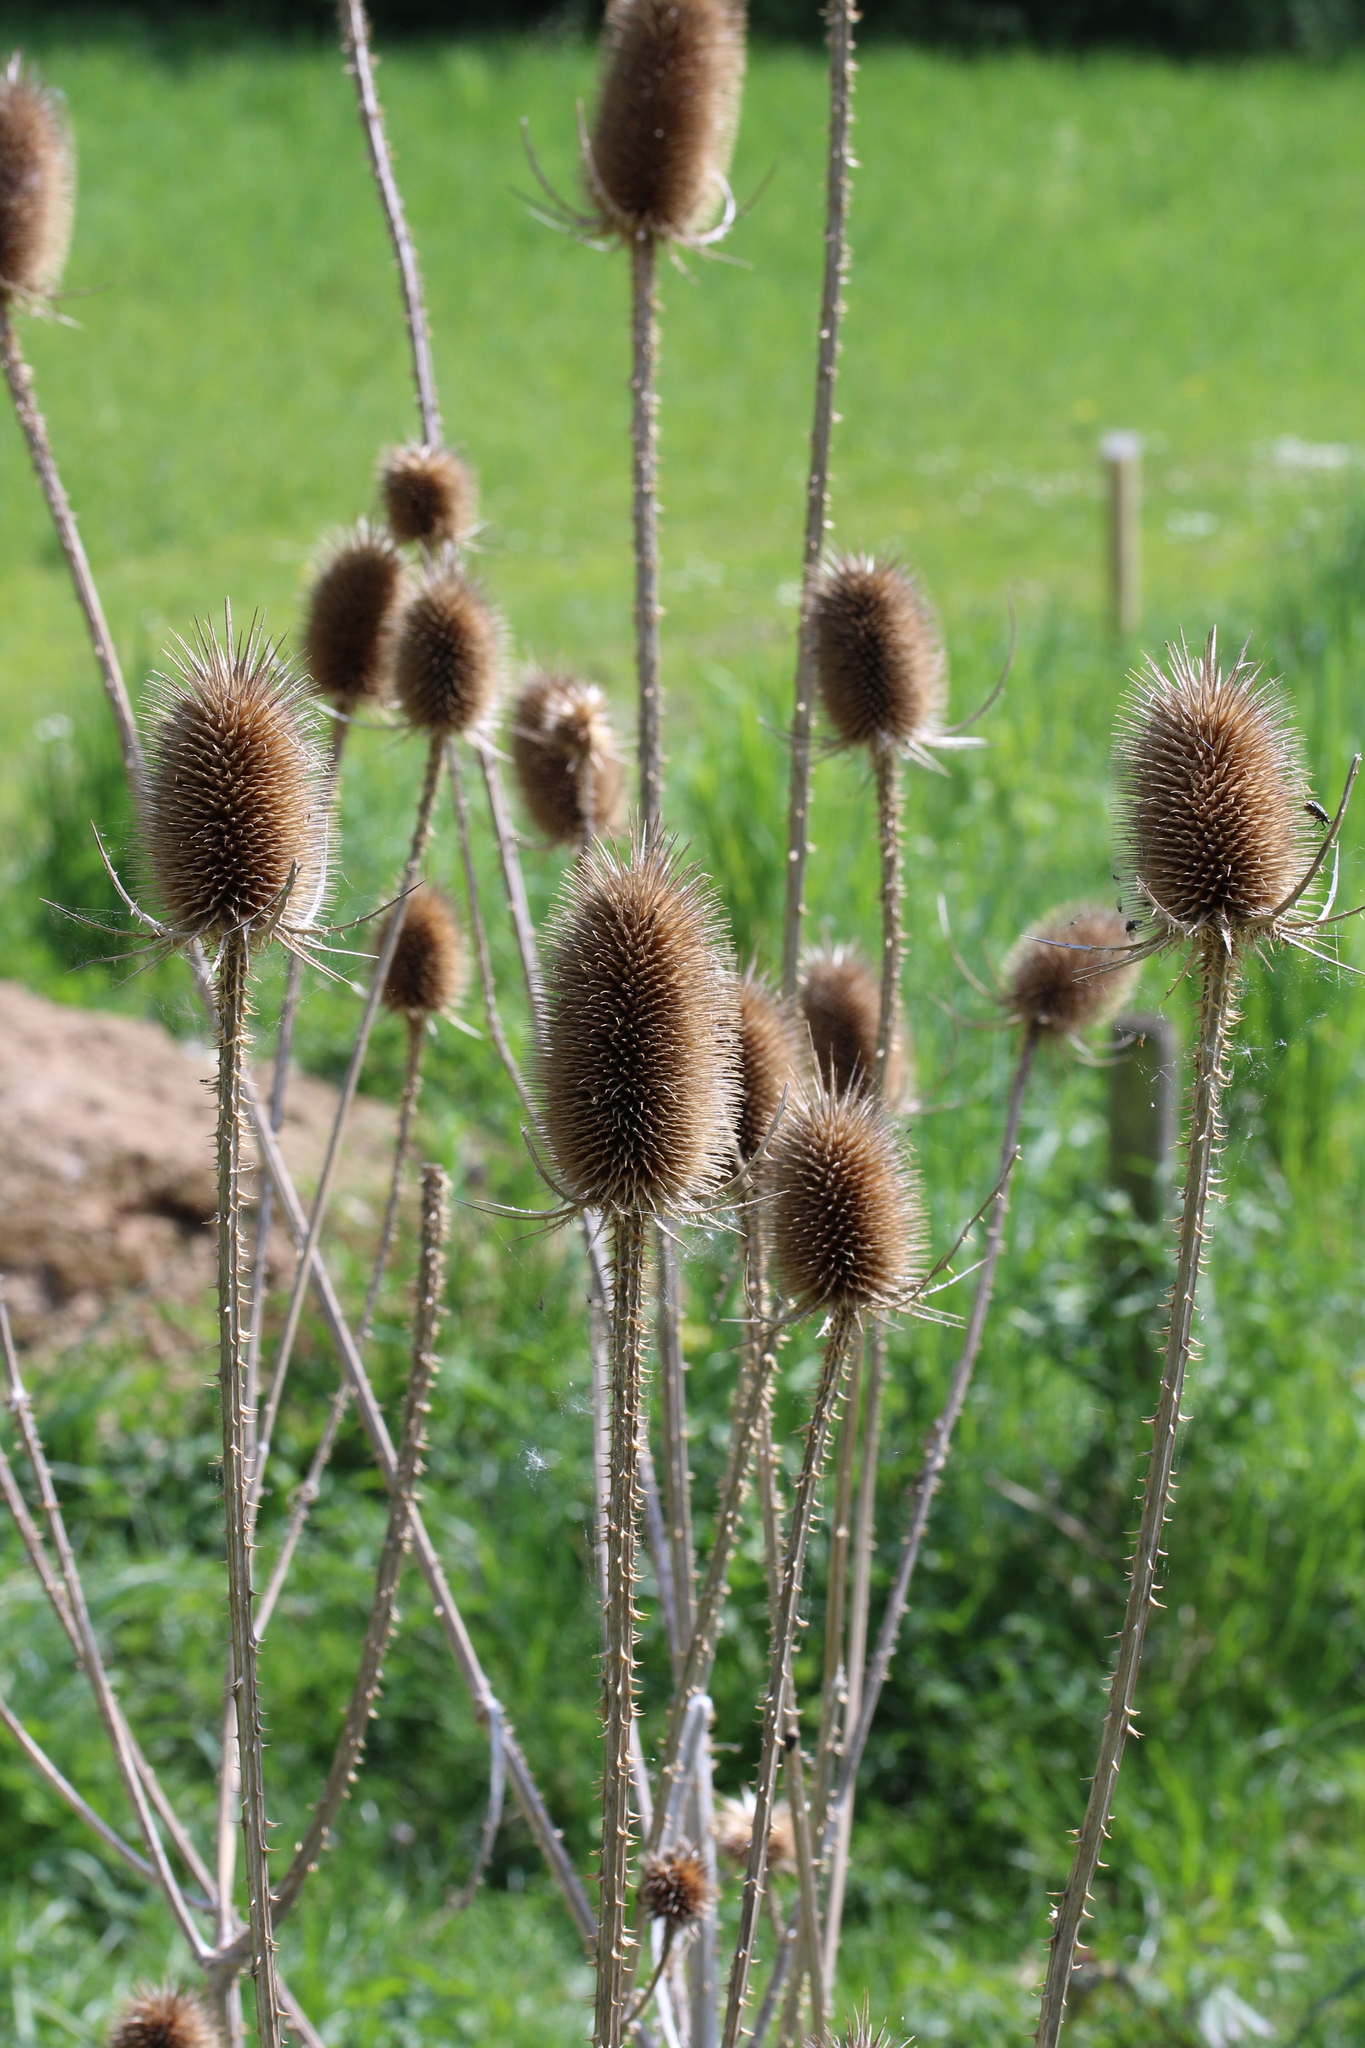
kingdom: Plantae
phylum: Tracheophyta
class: Magnoliopsida
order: Dipsacales
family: Caprifoliaceae
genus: Dipsacus
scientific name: Dipsacus fullonum
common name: Teasel
